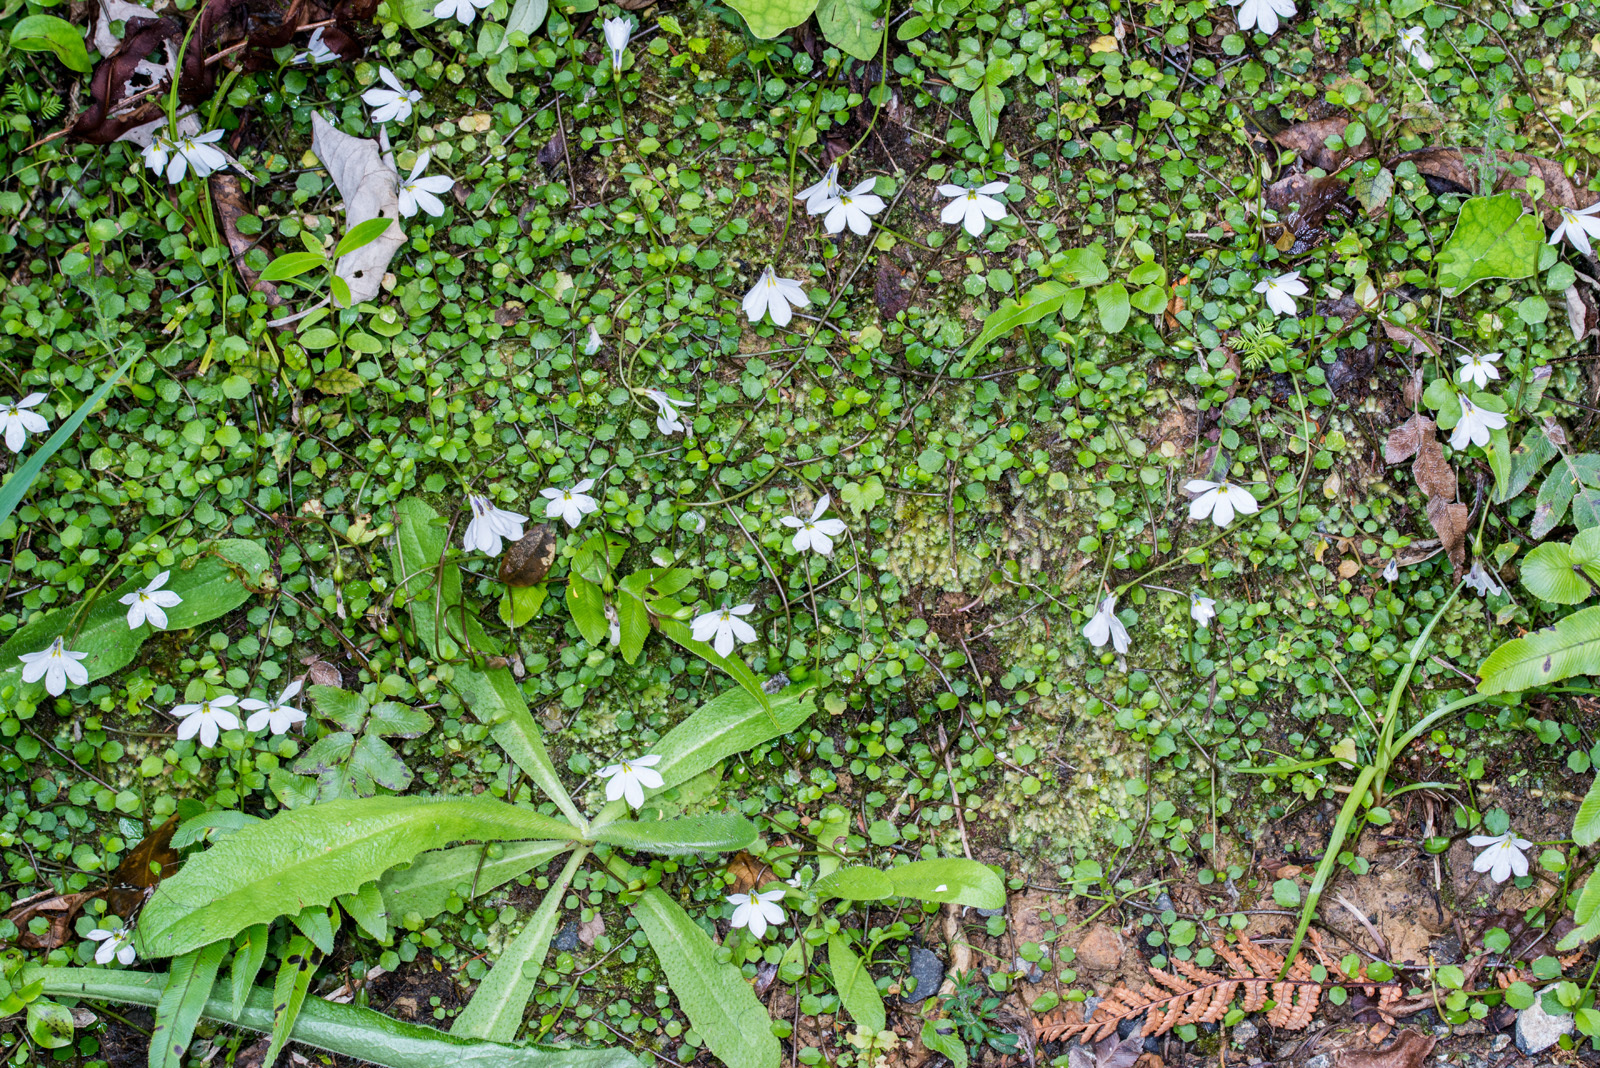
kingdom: Plantae
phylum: Tracheophyta
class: Magnoliopsida
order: Asterales
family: Campanulaceae
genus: Lobelia
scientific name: Lobelia angulata
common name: Lawn lobelia
